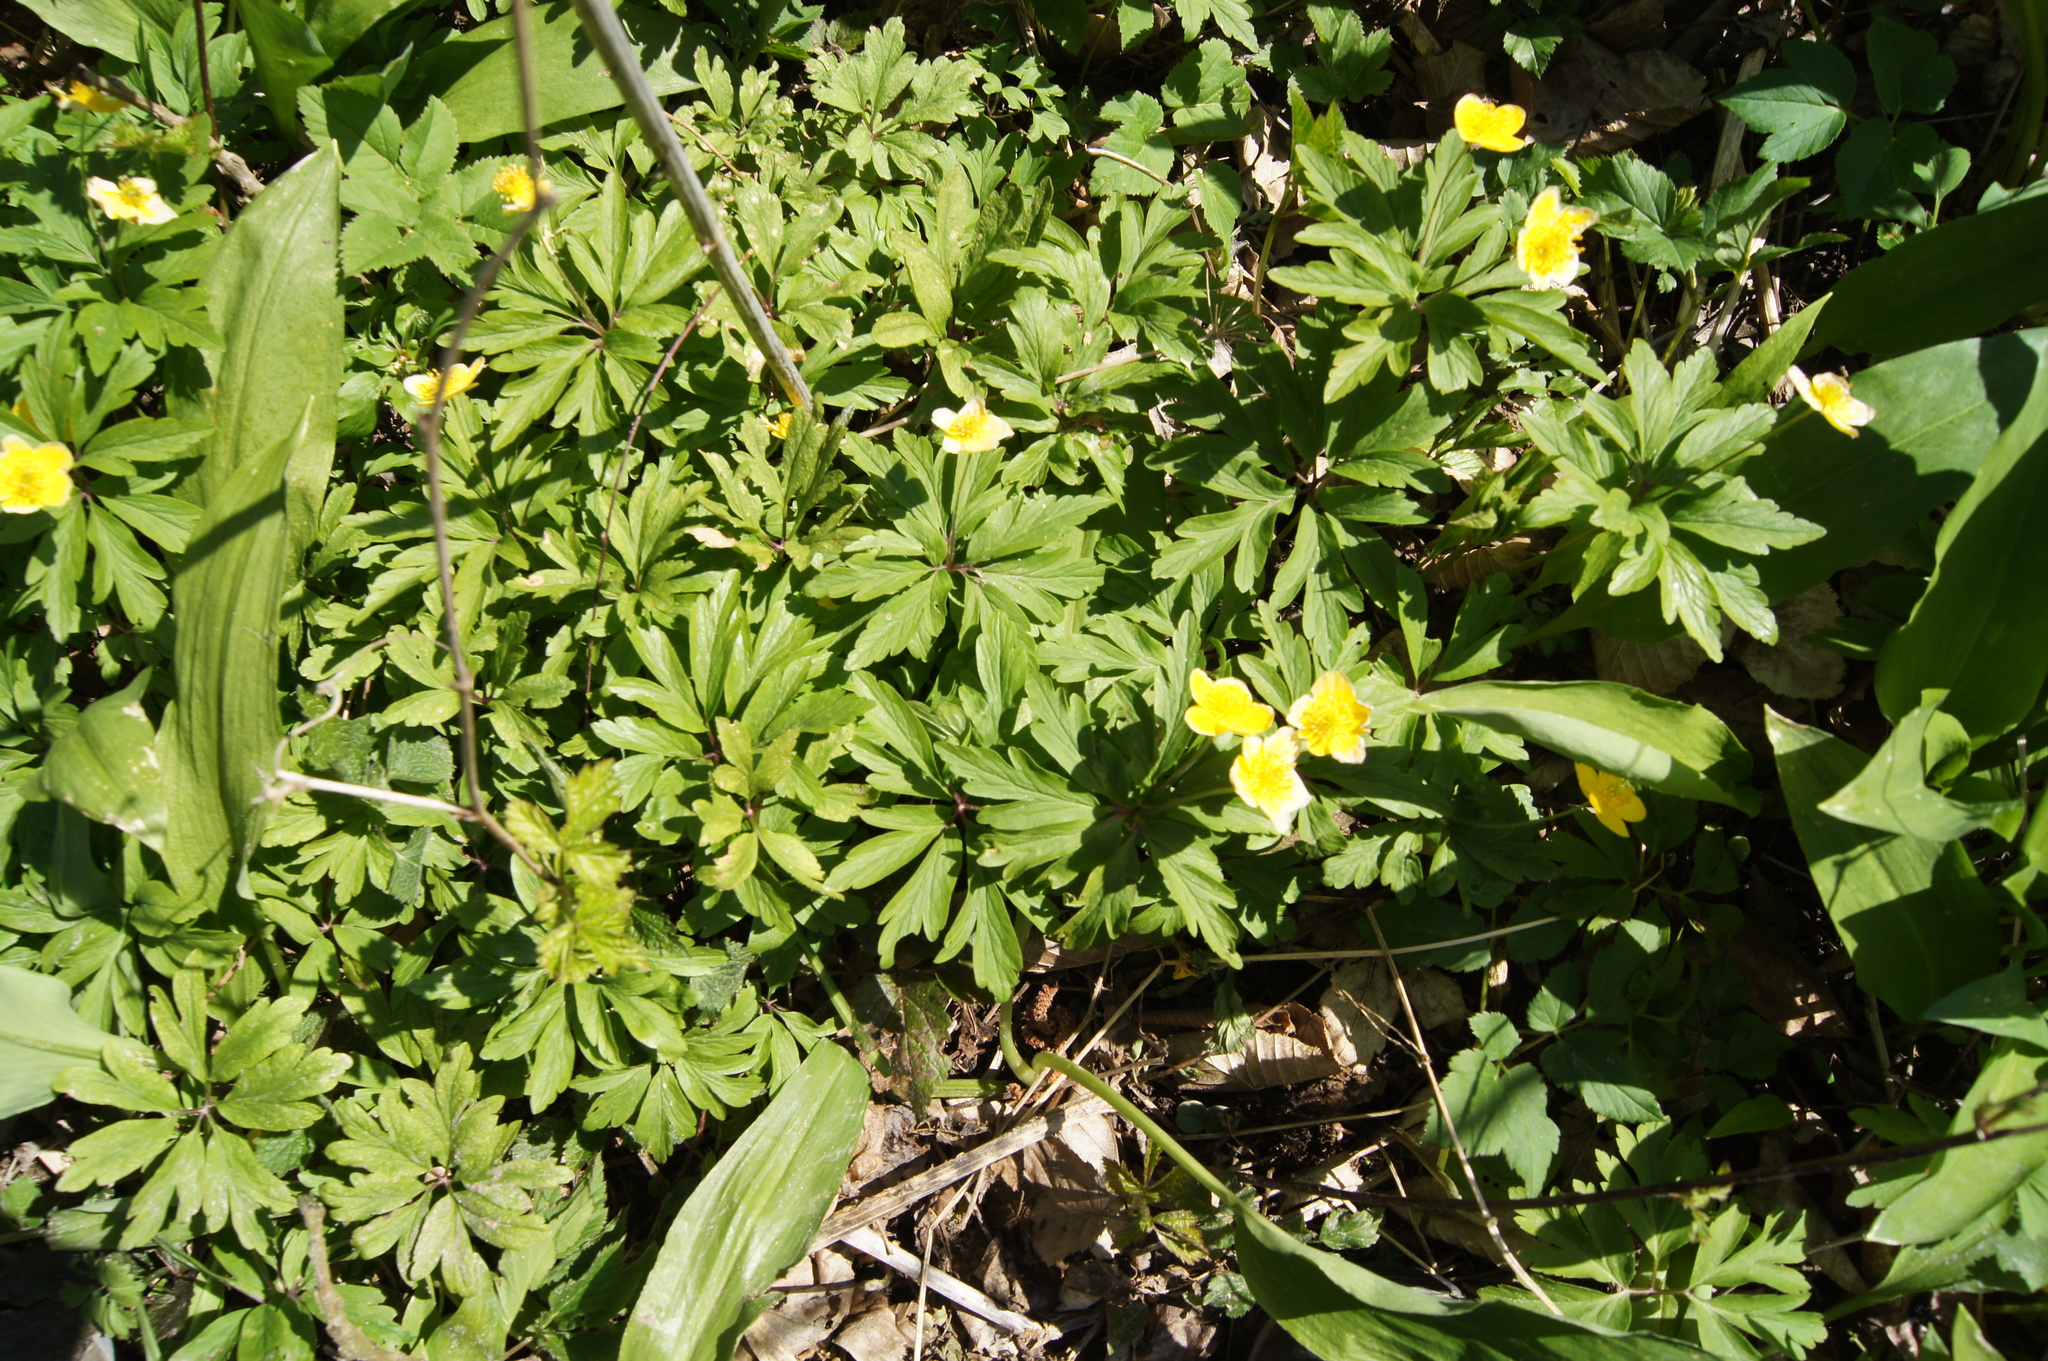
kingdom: Plantae
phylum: Tracheophyta
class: Magnoliopsida
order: Ranunculales
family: Ranunculaceae
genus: Anemone
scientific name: Anemone ranunculoides
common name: Yellow anemone
